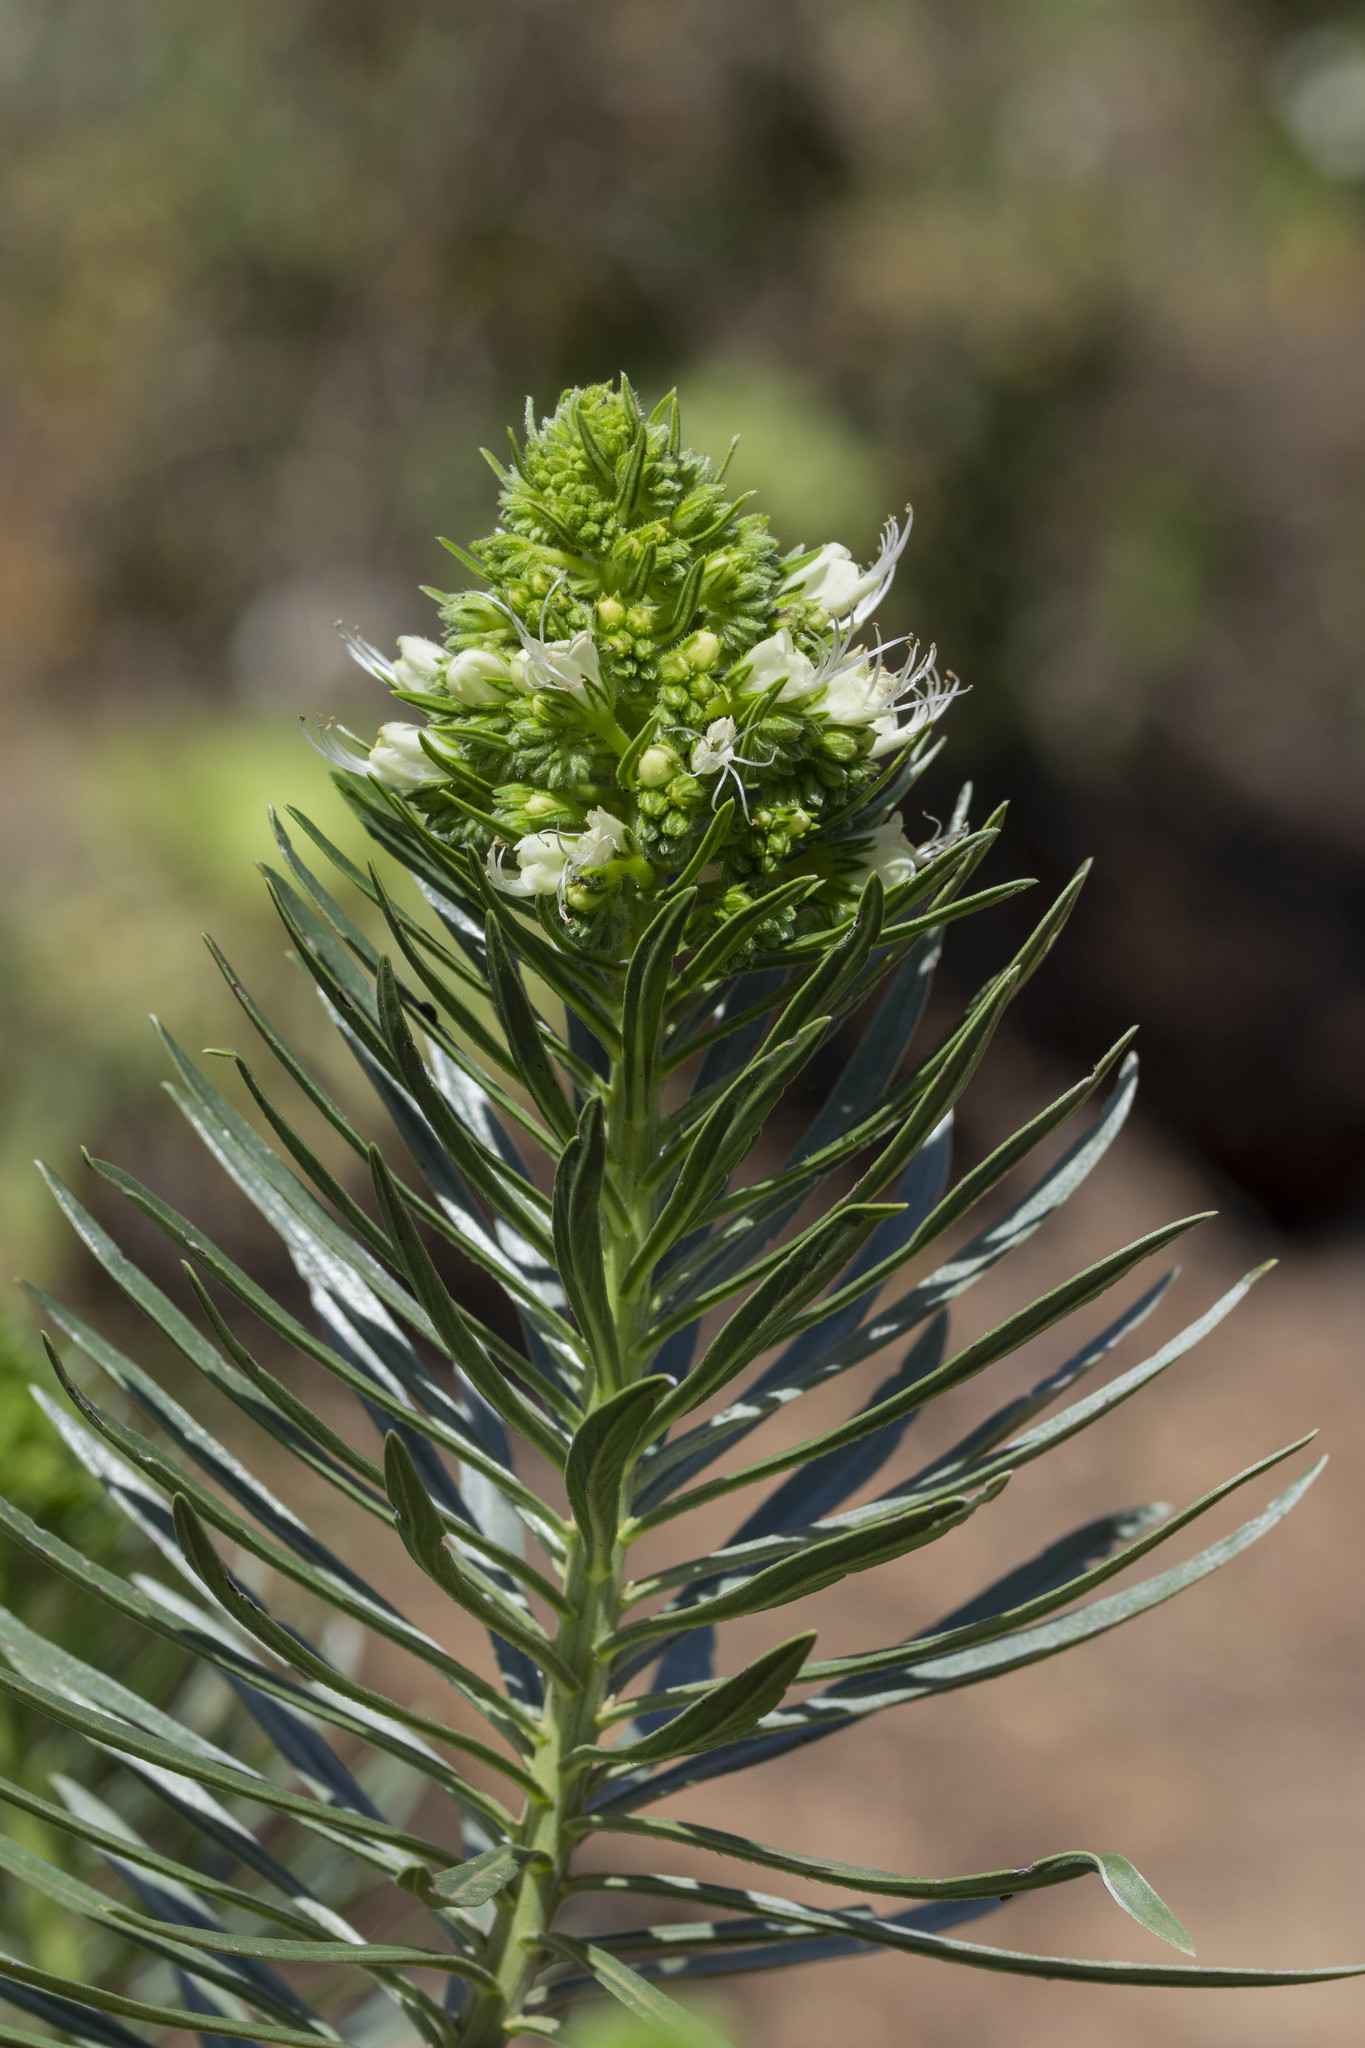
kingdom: Plantae
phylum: Tracheophyta
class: Magnoliopsida
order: Boraginales
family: Boraginaceae
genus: Echium
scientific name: Echium leucophaeum
